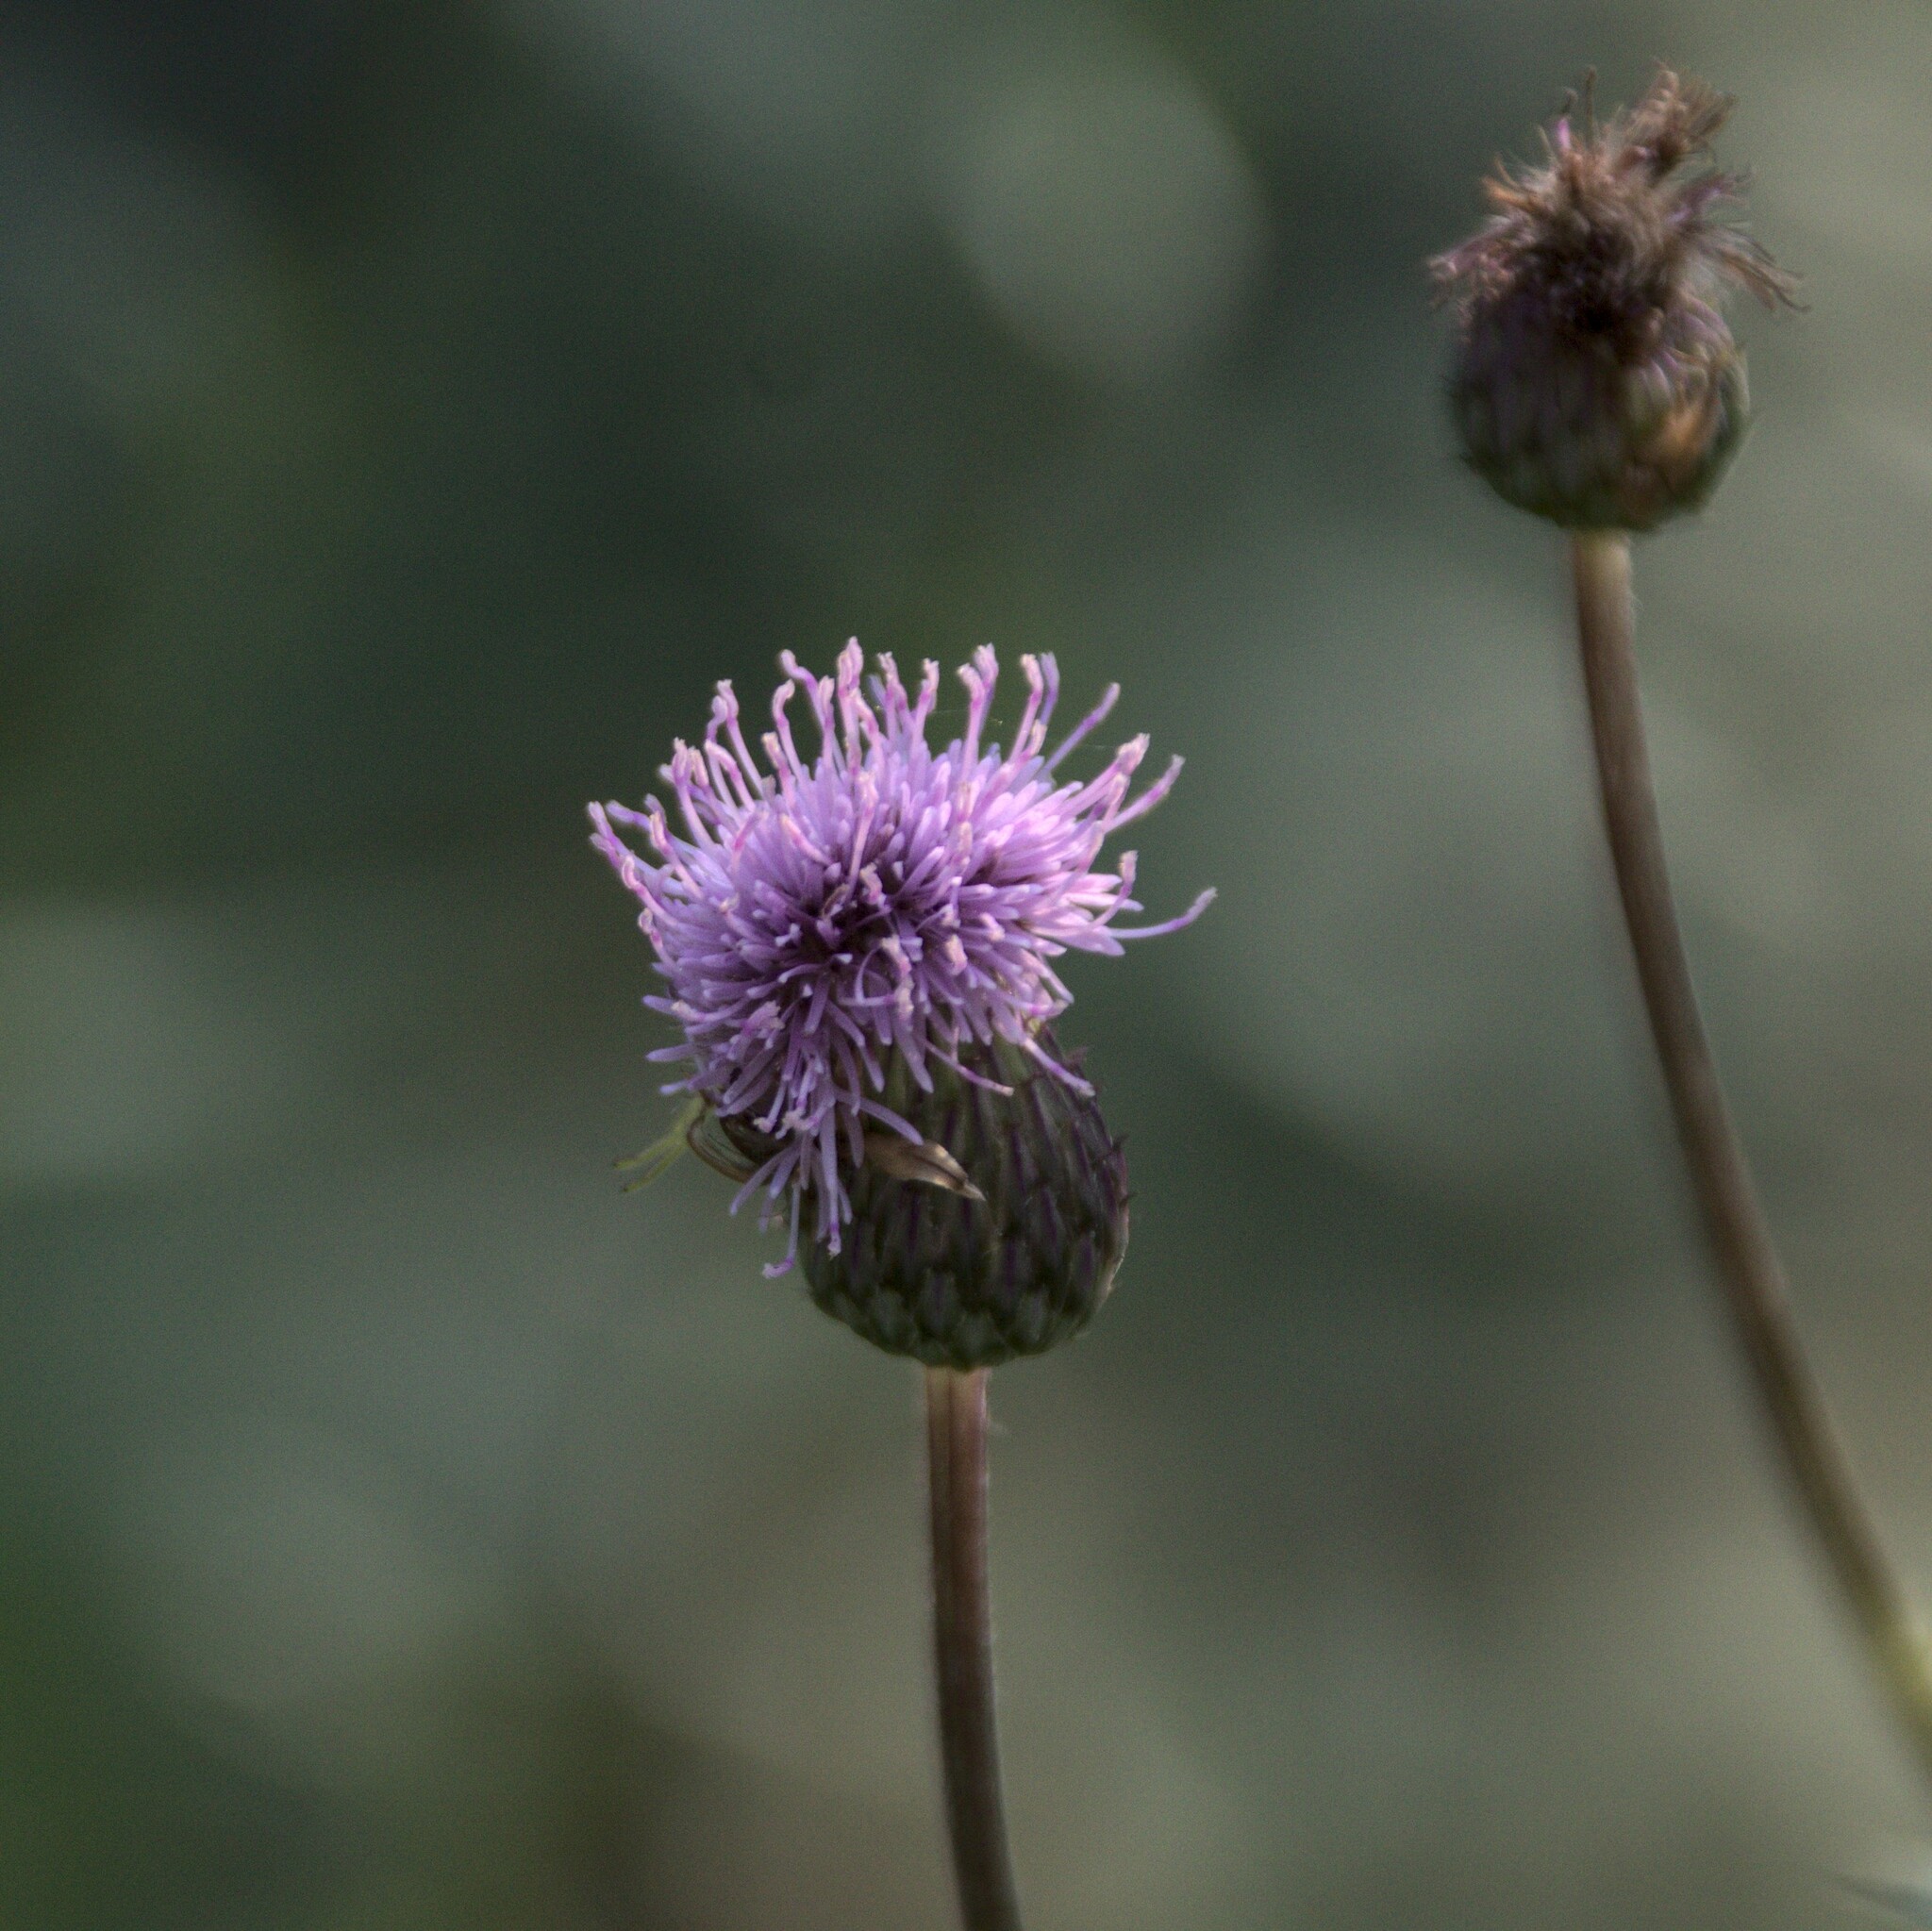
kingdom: Plantae
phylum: Tracheophyta
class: Magnoliopsida
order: Asterales
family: Asteraceae
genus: Cirsium
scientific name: Cirsium arvense
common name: Creeping thistle
